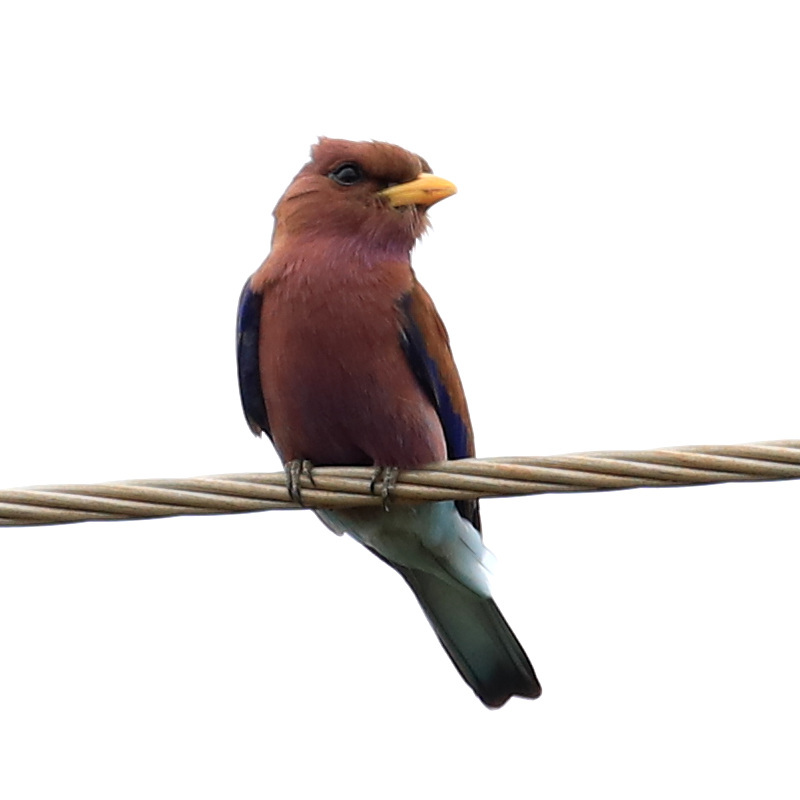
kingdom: Animalia
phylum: Chordata
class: Aves
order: Coraciiformes
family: Coraciidae
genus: Eurystomus
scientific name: Eurystomus glaucurus
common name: Broad-billed roller
